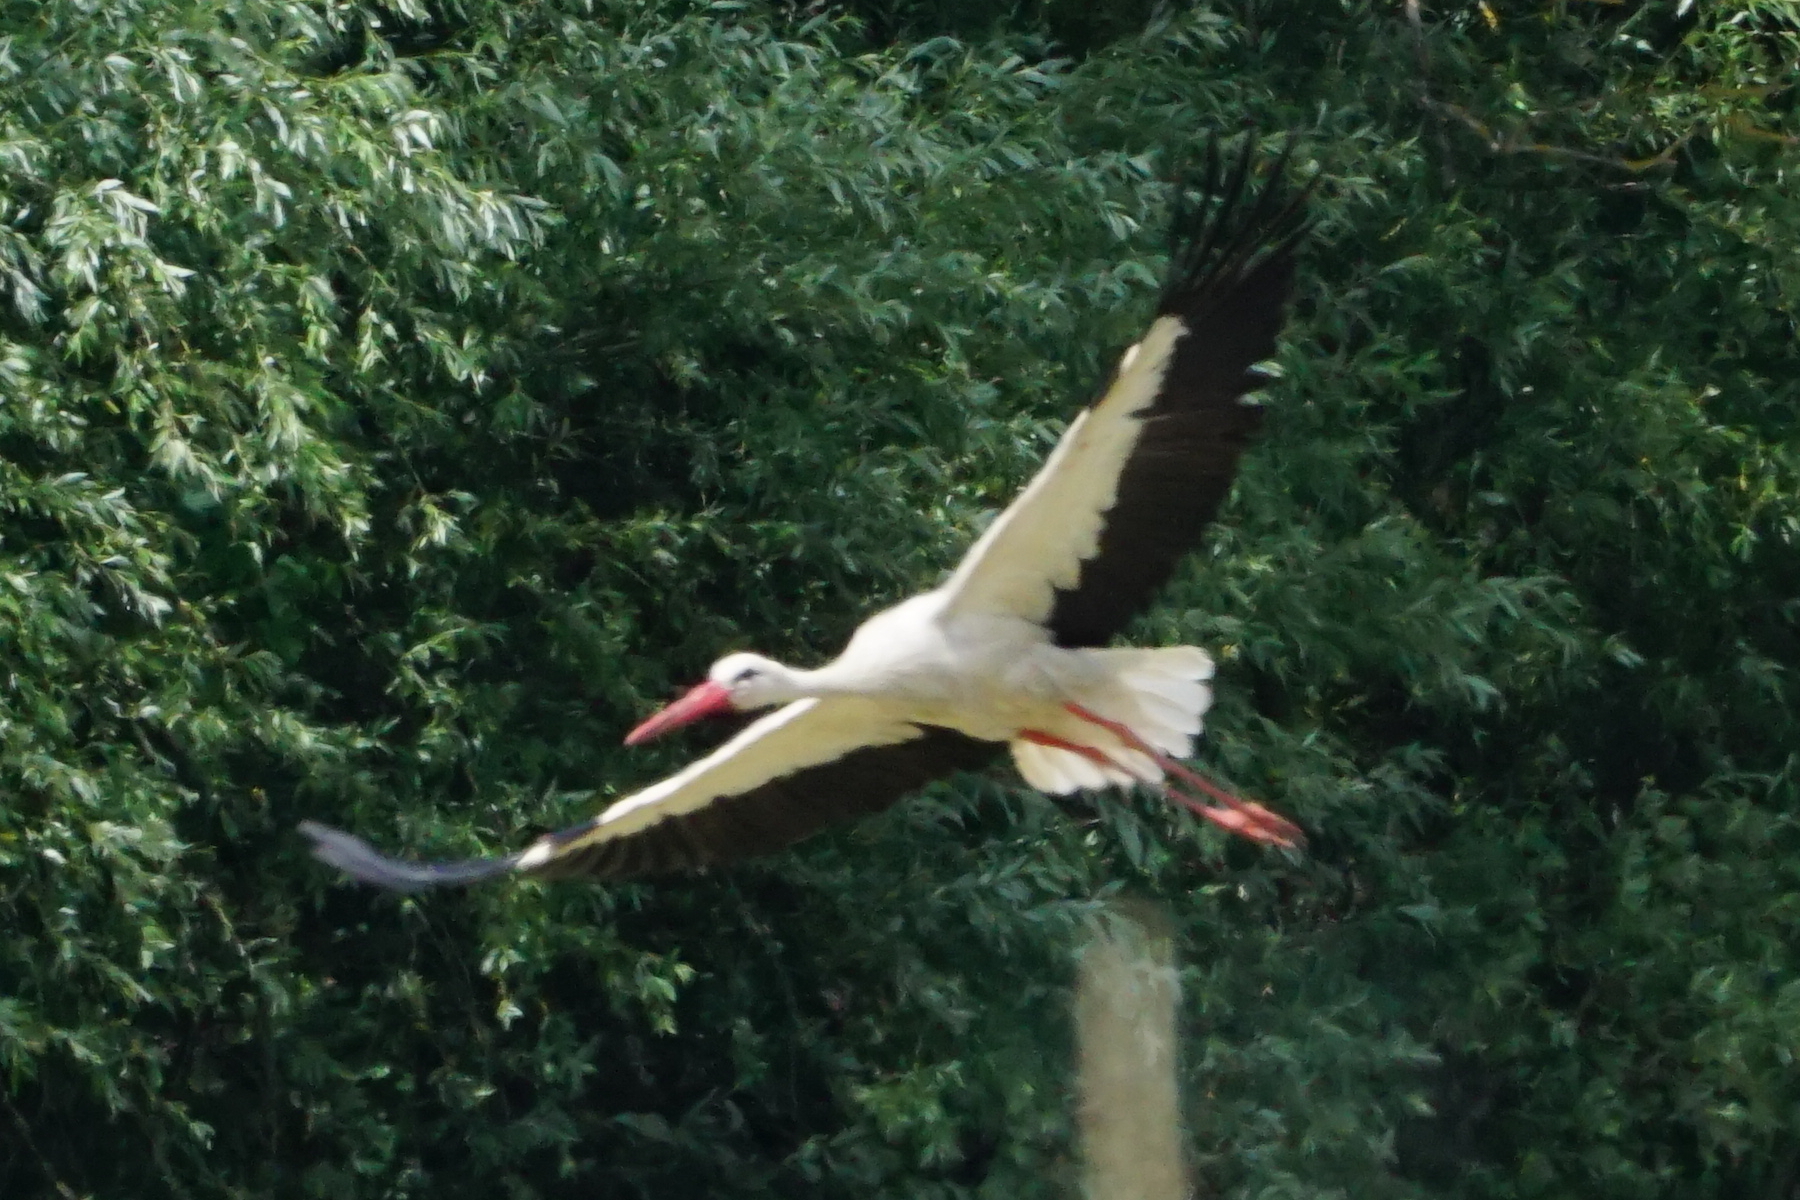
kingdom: Animalia
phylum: Chordata
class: Aves
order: Ciconiiformes
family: Ciconiidae
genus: Ciconia
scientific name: Ciconia ciconia
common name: White stork
